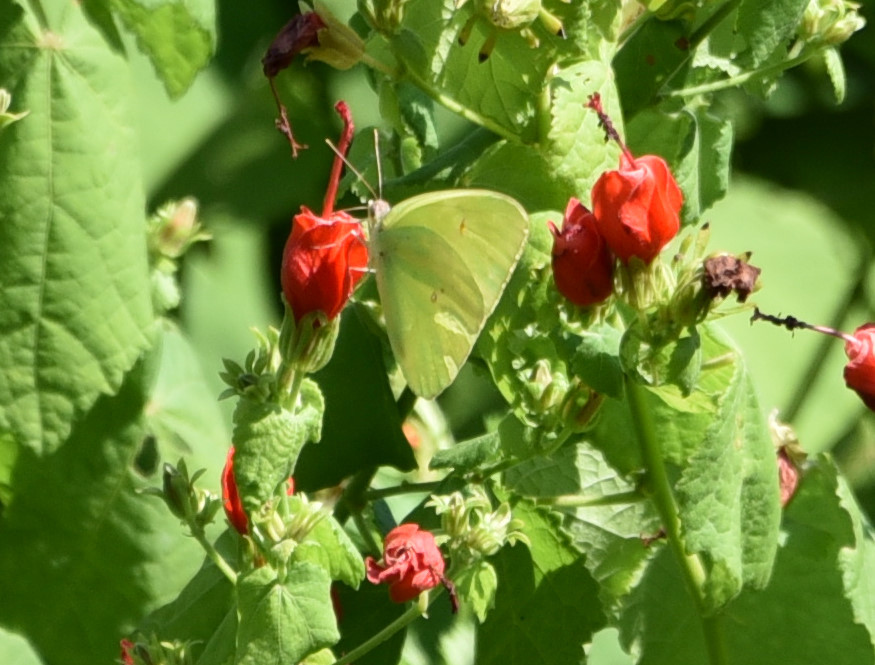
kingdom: Animalia
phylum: Arthropoda
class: Insecta
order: Lepidoptera
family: Pieridae
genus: Phoebis
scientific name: Phoebis sennae
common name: Cloudless sulphur
